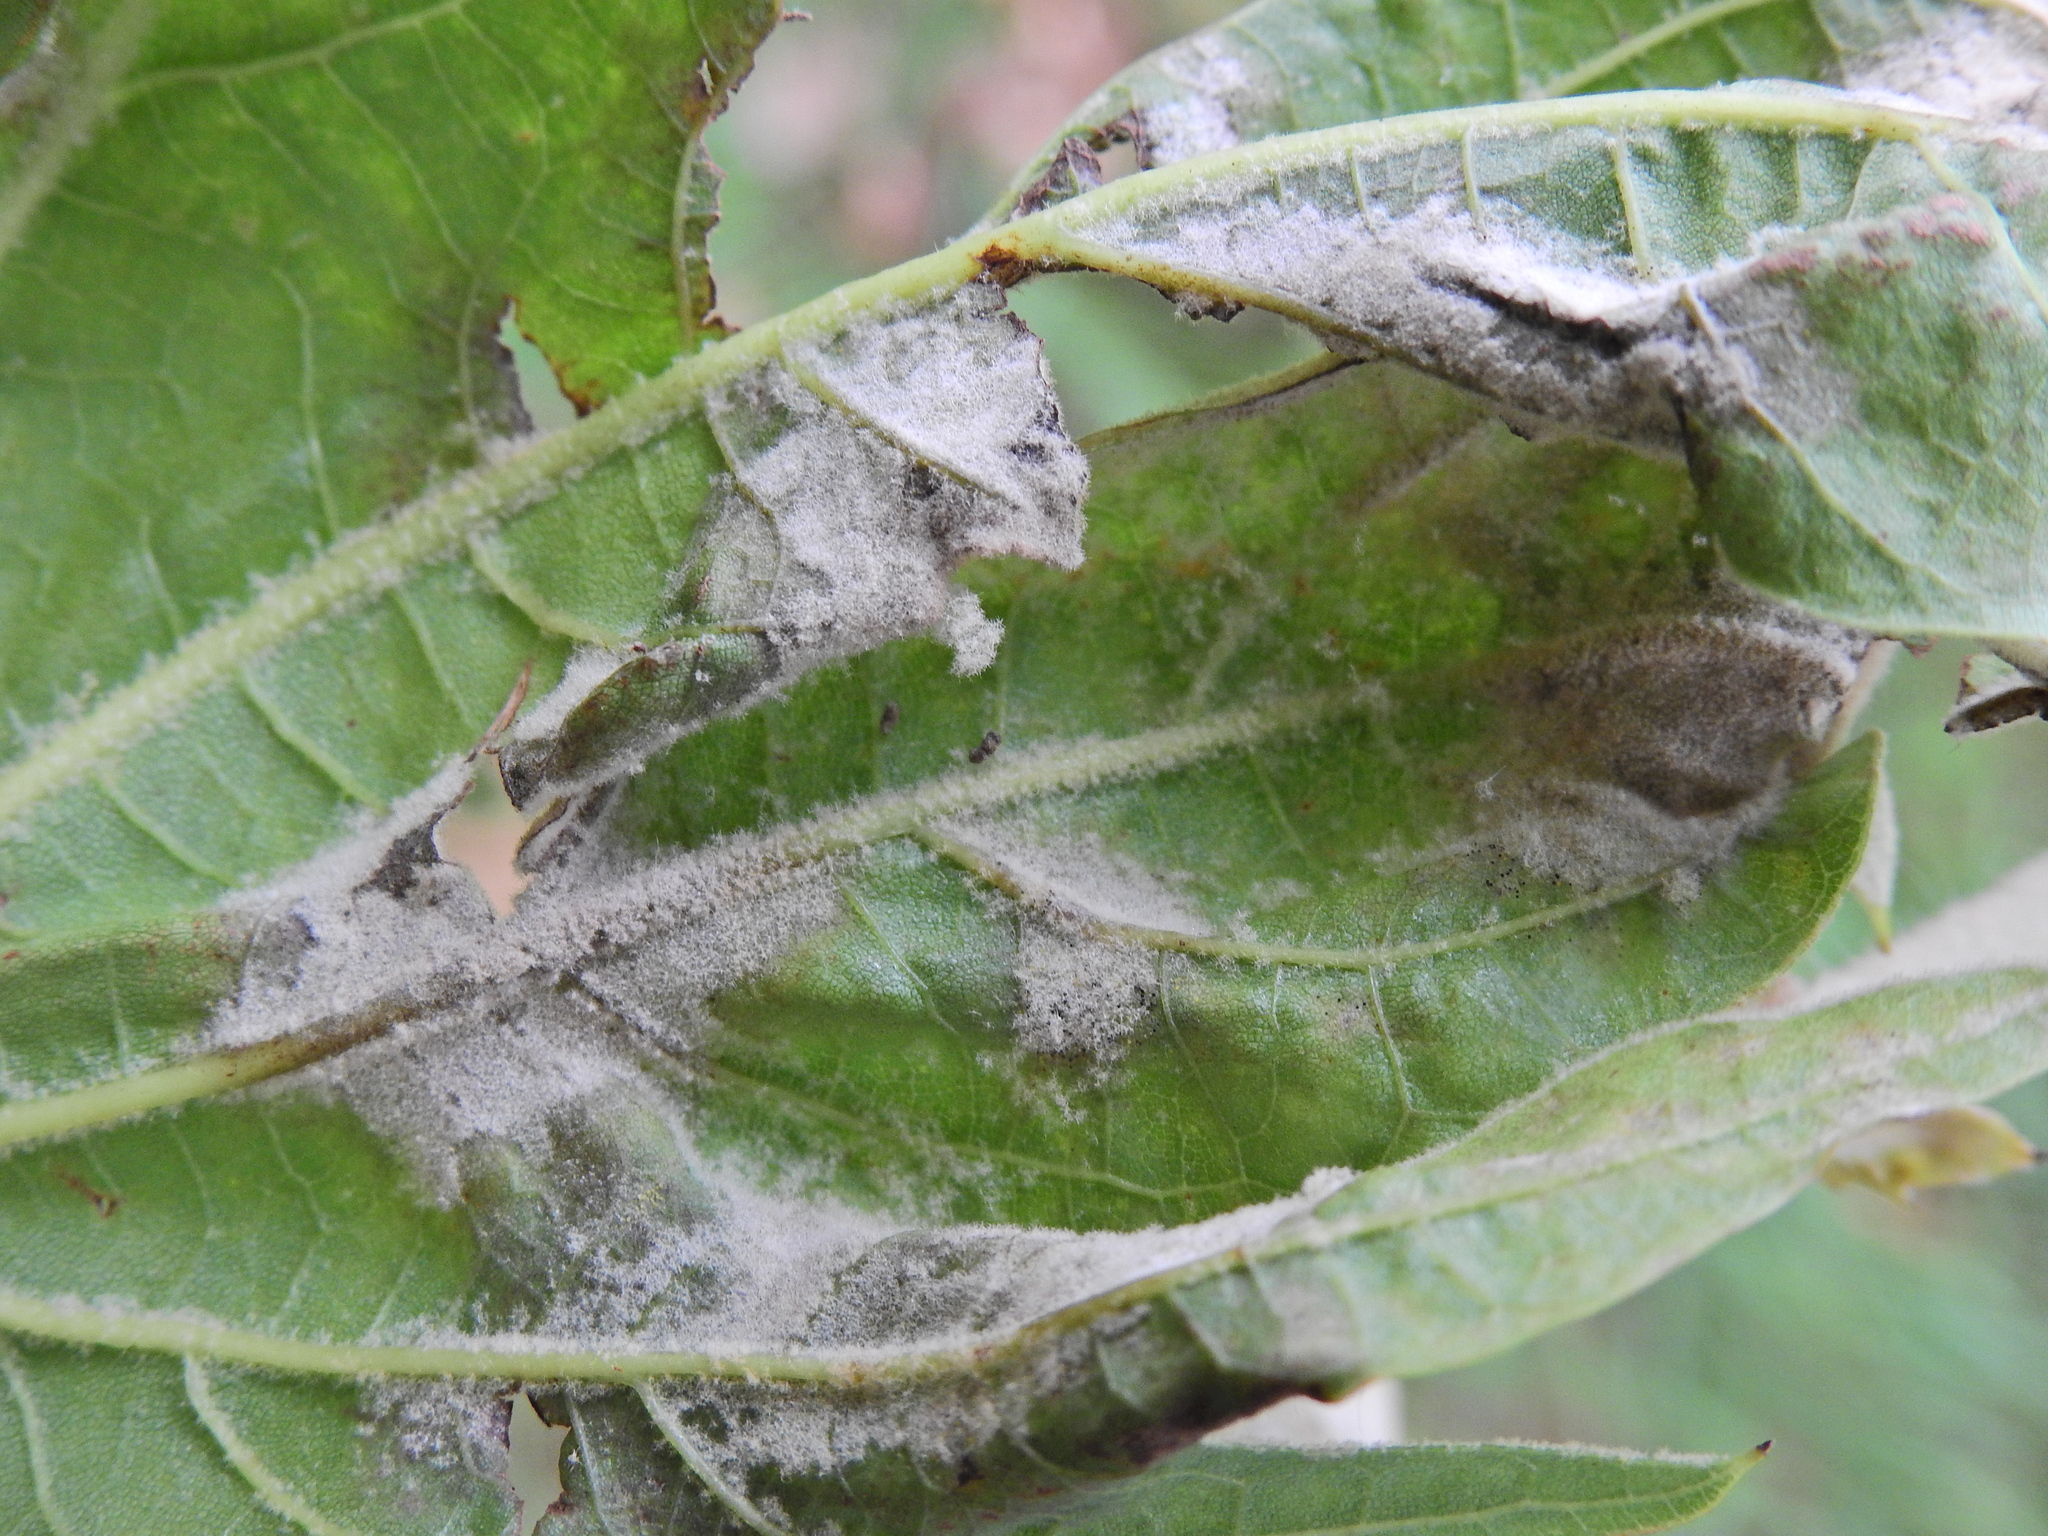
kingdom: Fungi
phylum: Ascomycota
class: Leotiomycetes
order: Helotiales
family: Erysiphaceae
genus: Erysiphe
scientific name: Erysiphe platani
